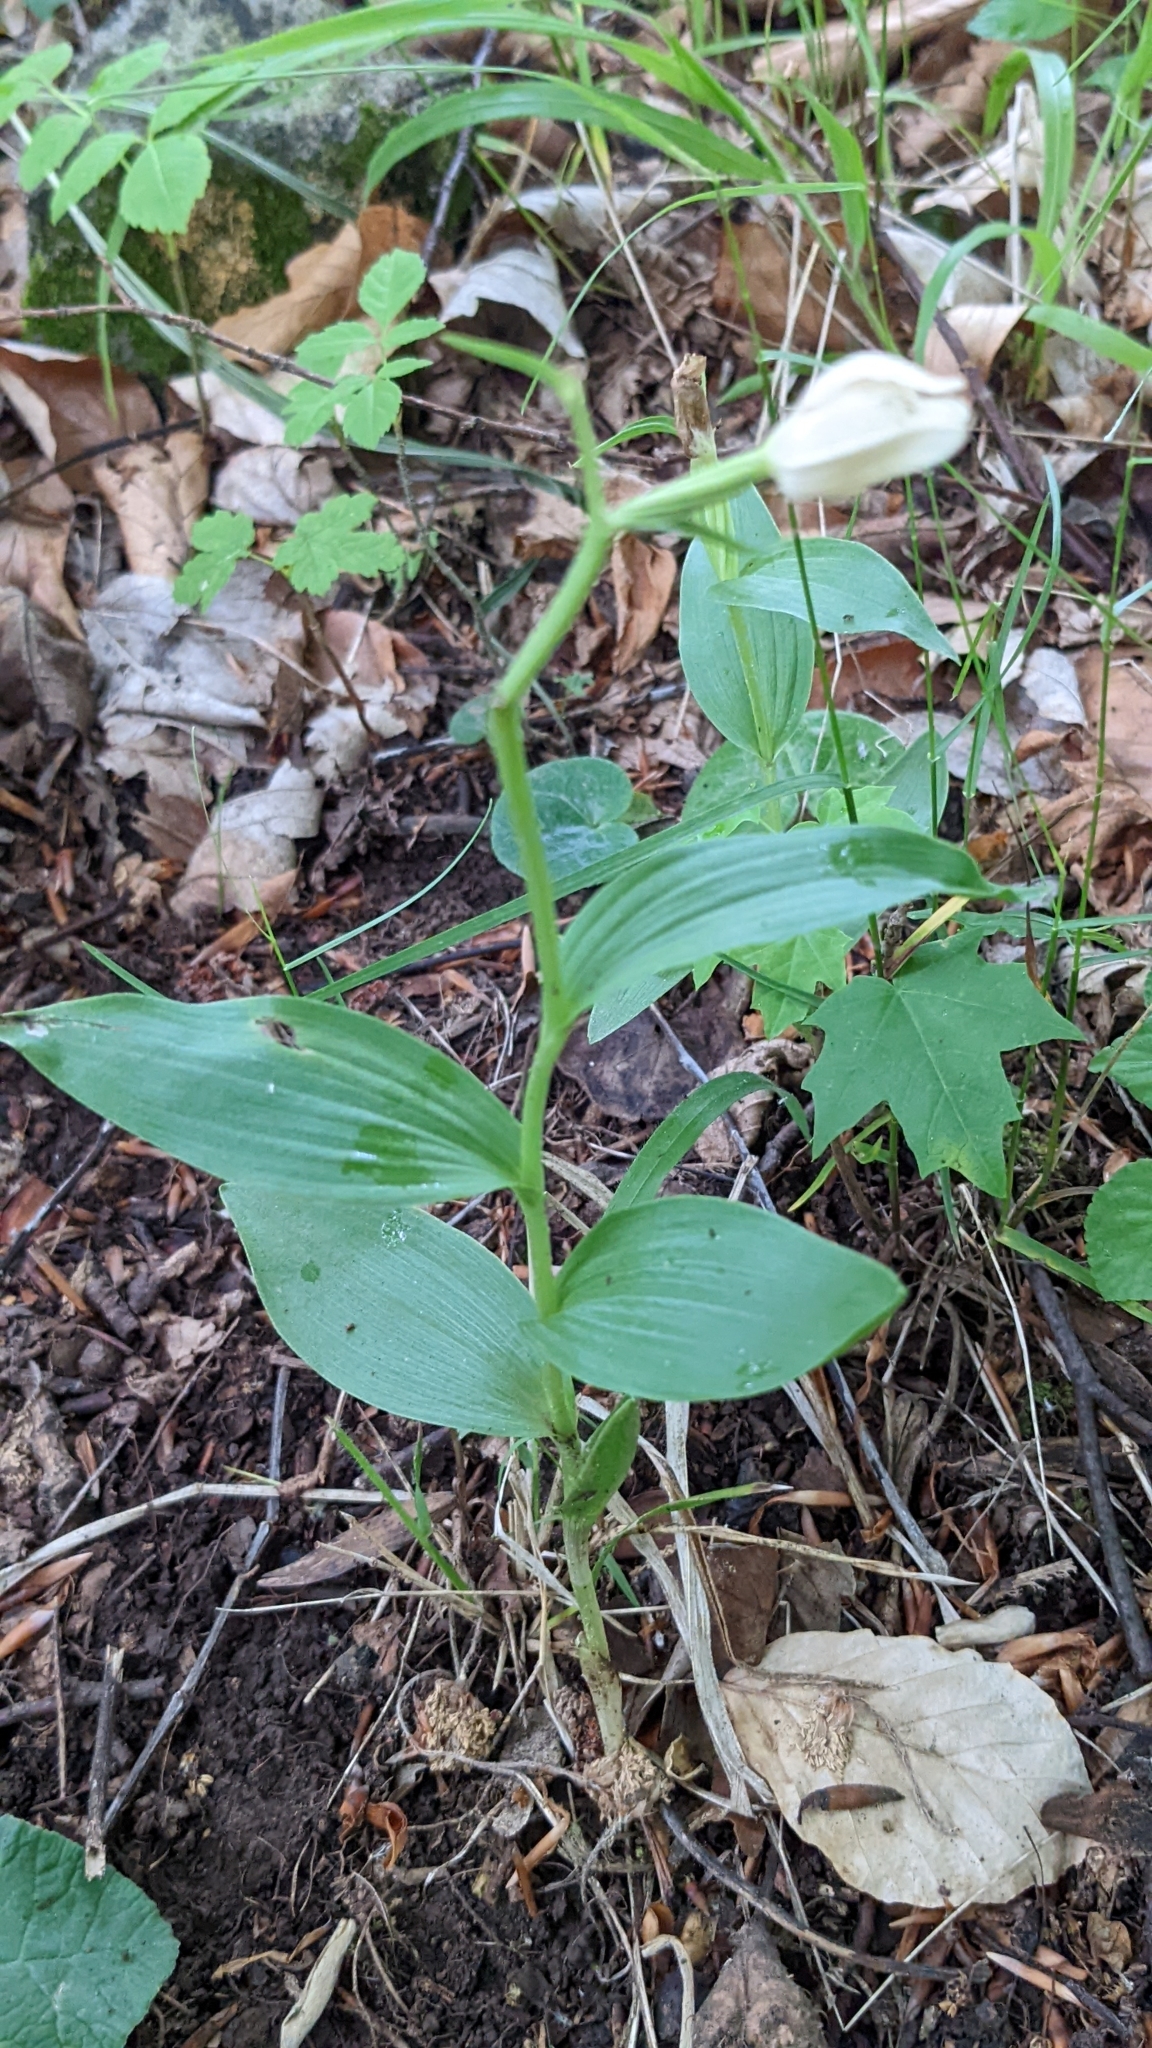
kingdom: Plantae
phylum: Tracheophyta
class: Liliopsida
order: Asparagales
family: Orchidaceae
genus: Cephalanthera
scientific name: Cephalanthera damasonium
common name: White helleborine
